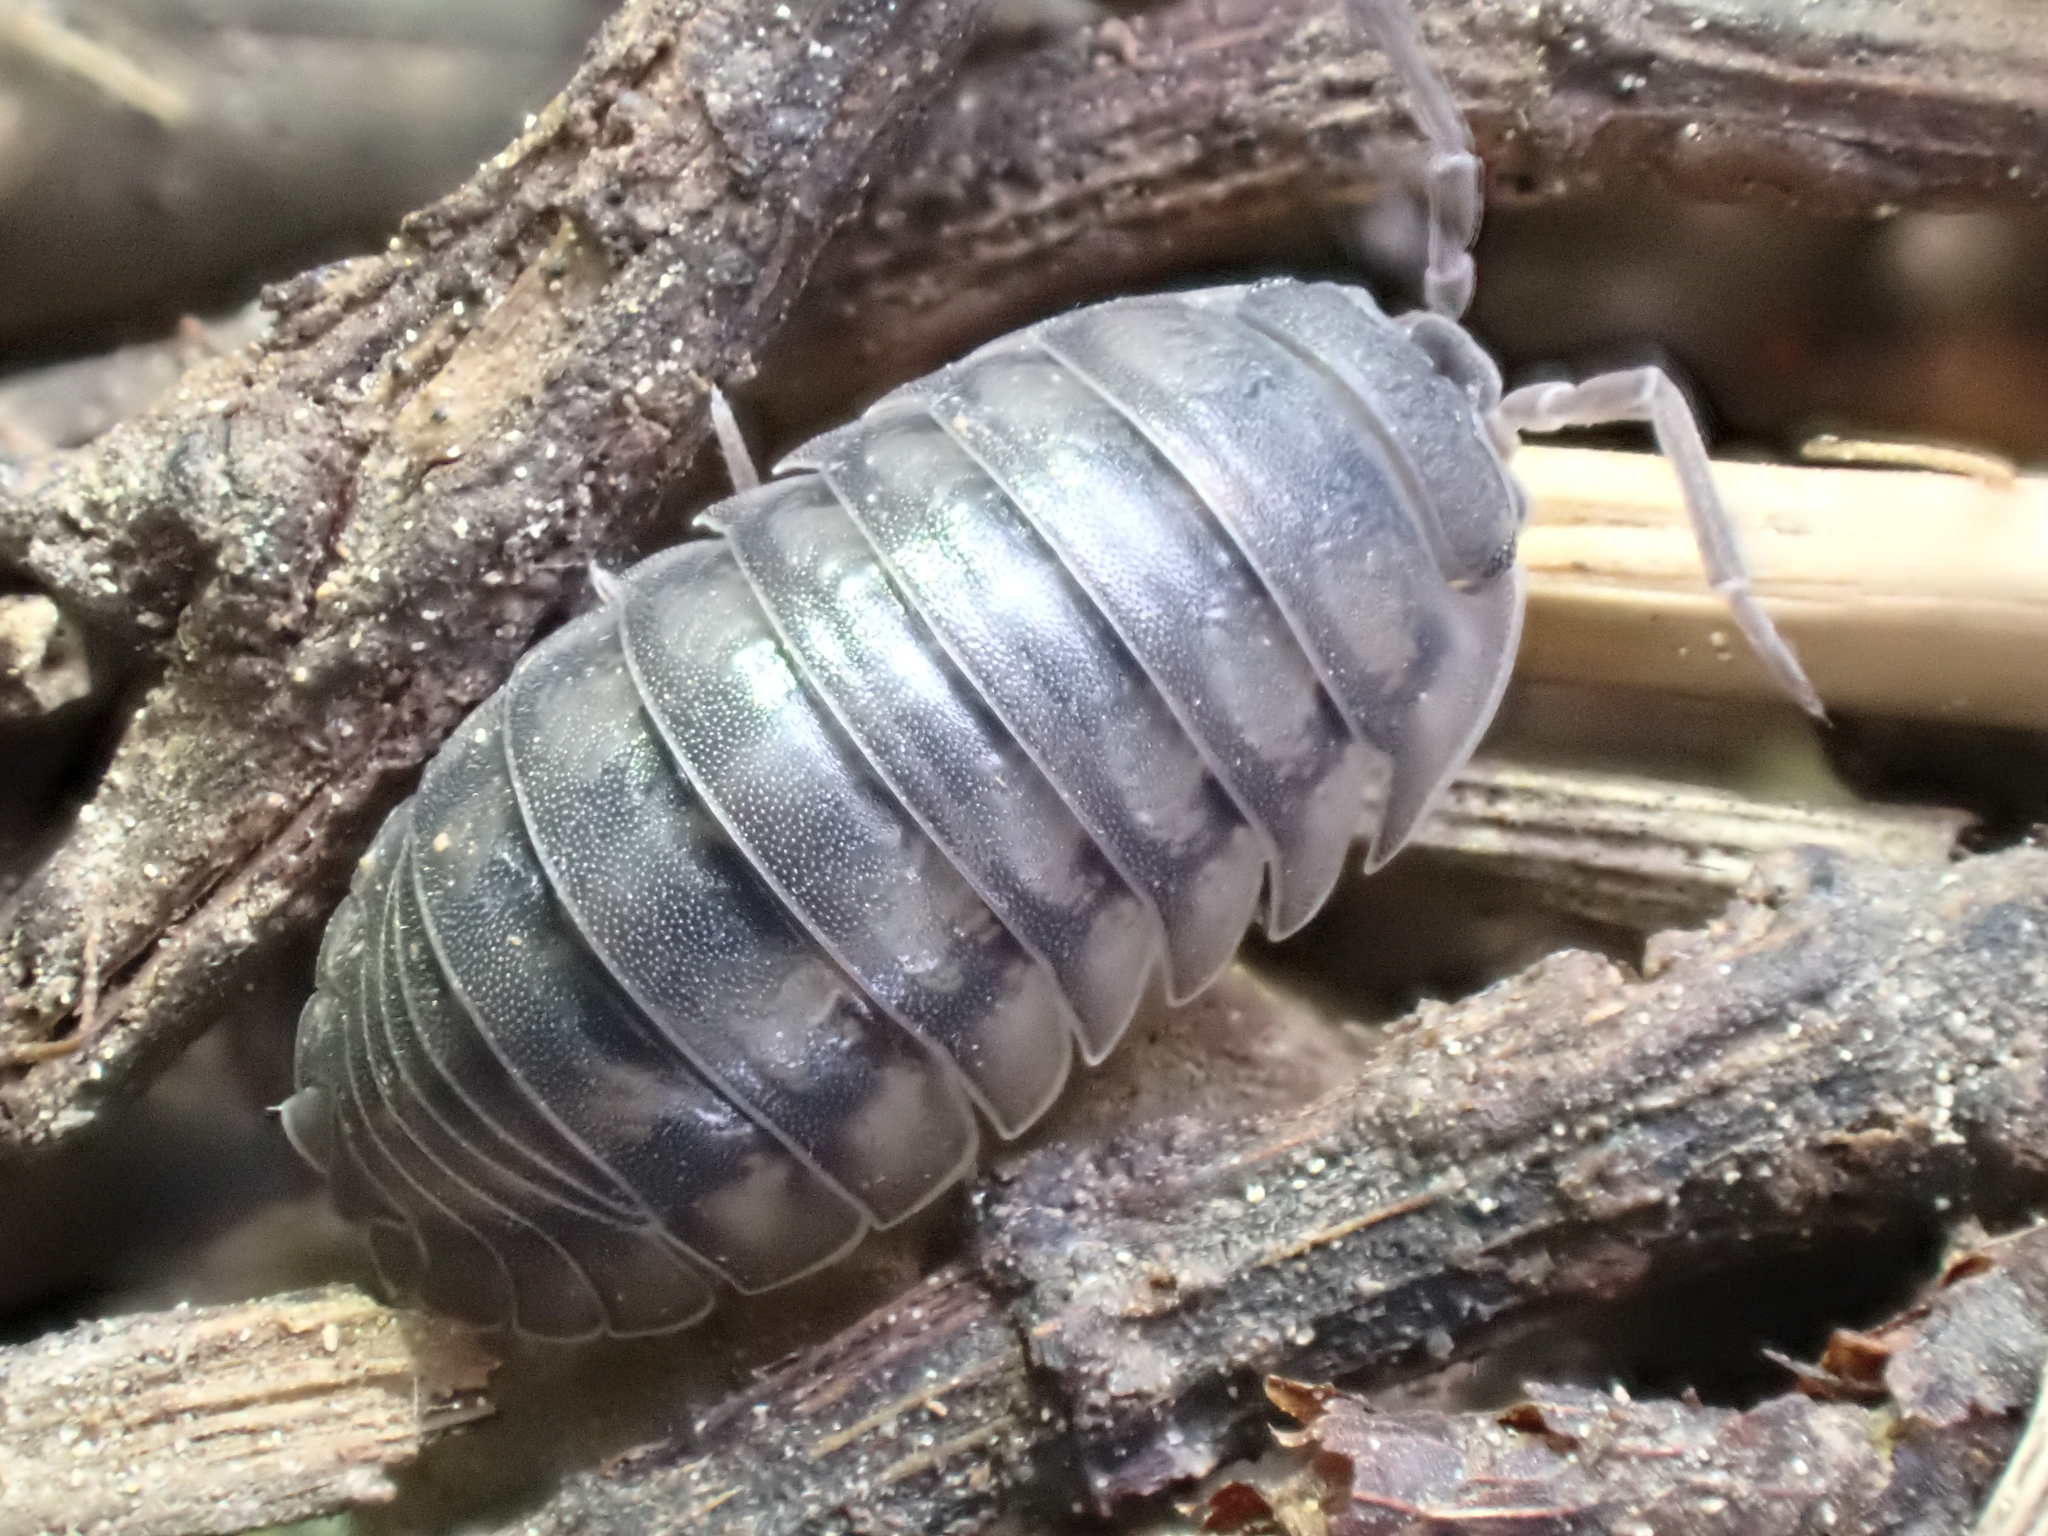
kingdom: Animalia
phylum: Arthropoda
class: Malacostraca
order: Isopoda
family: Armadillidiidae
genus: Armadillidium
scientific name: Armadillidium nasatum
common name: Isopod
